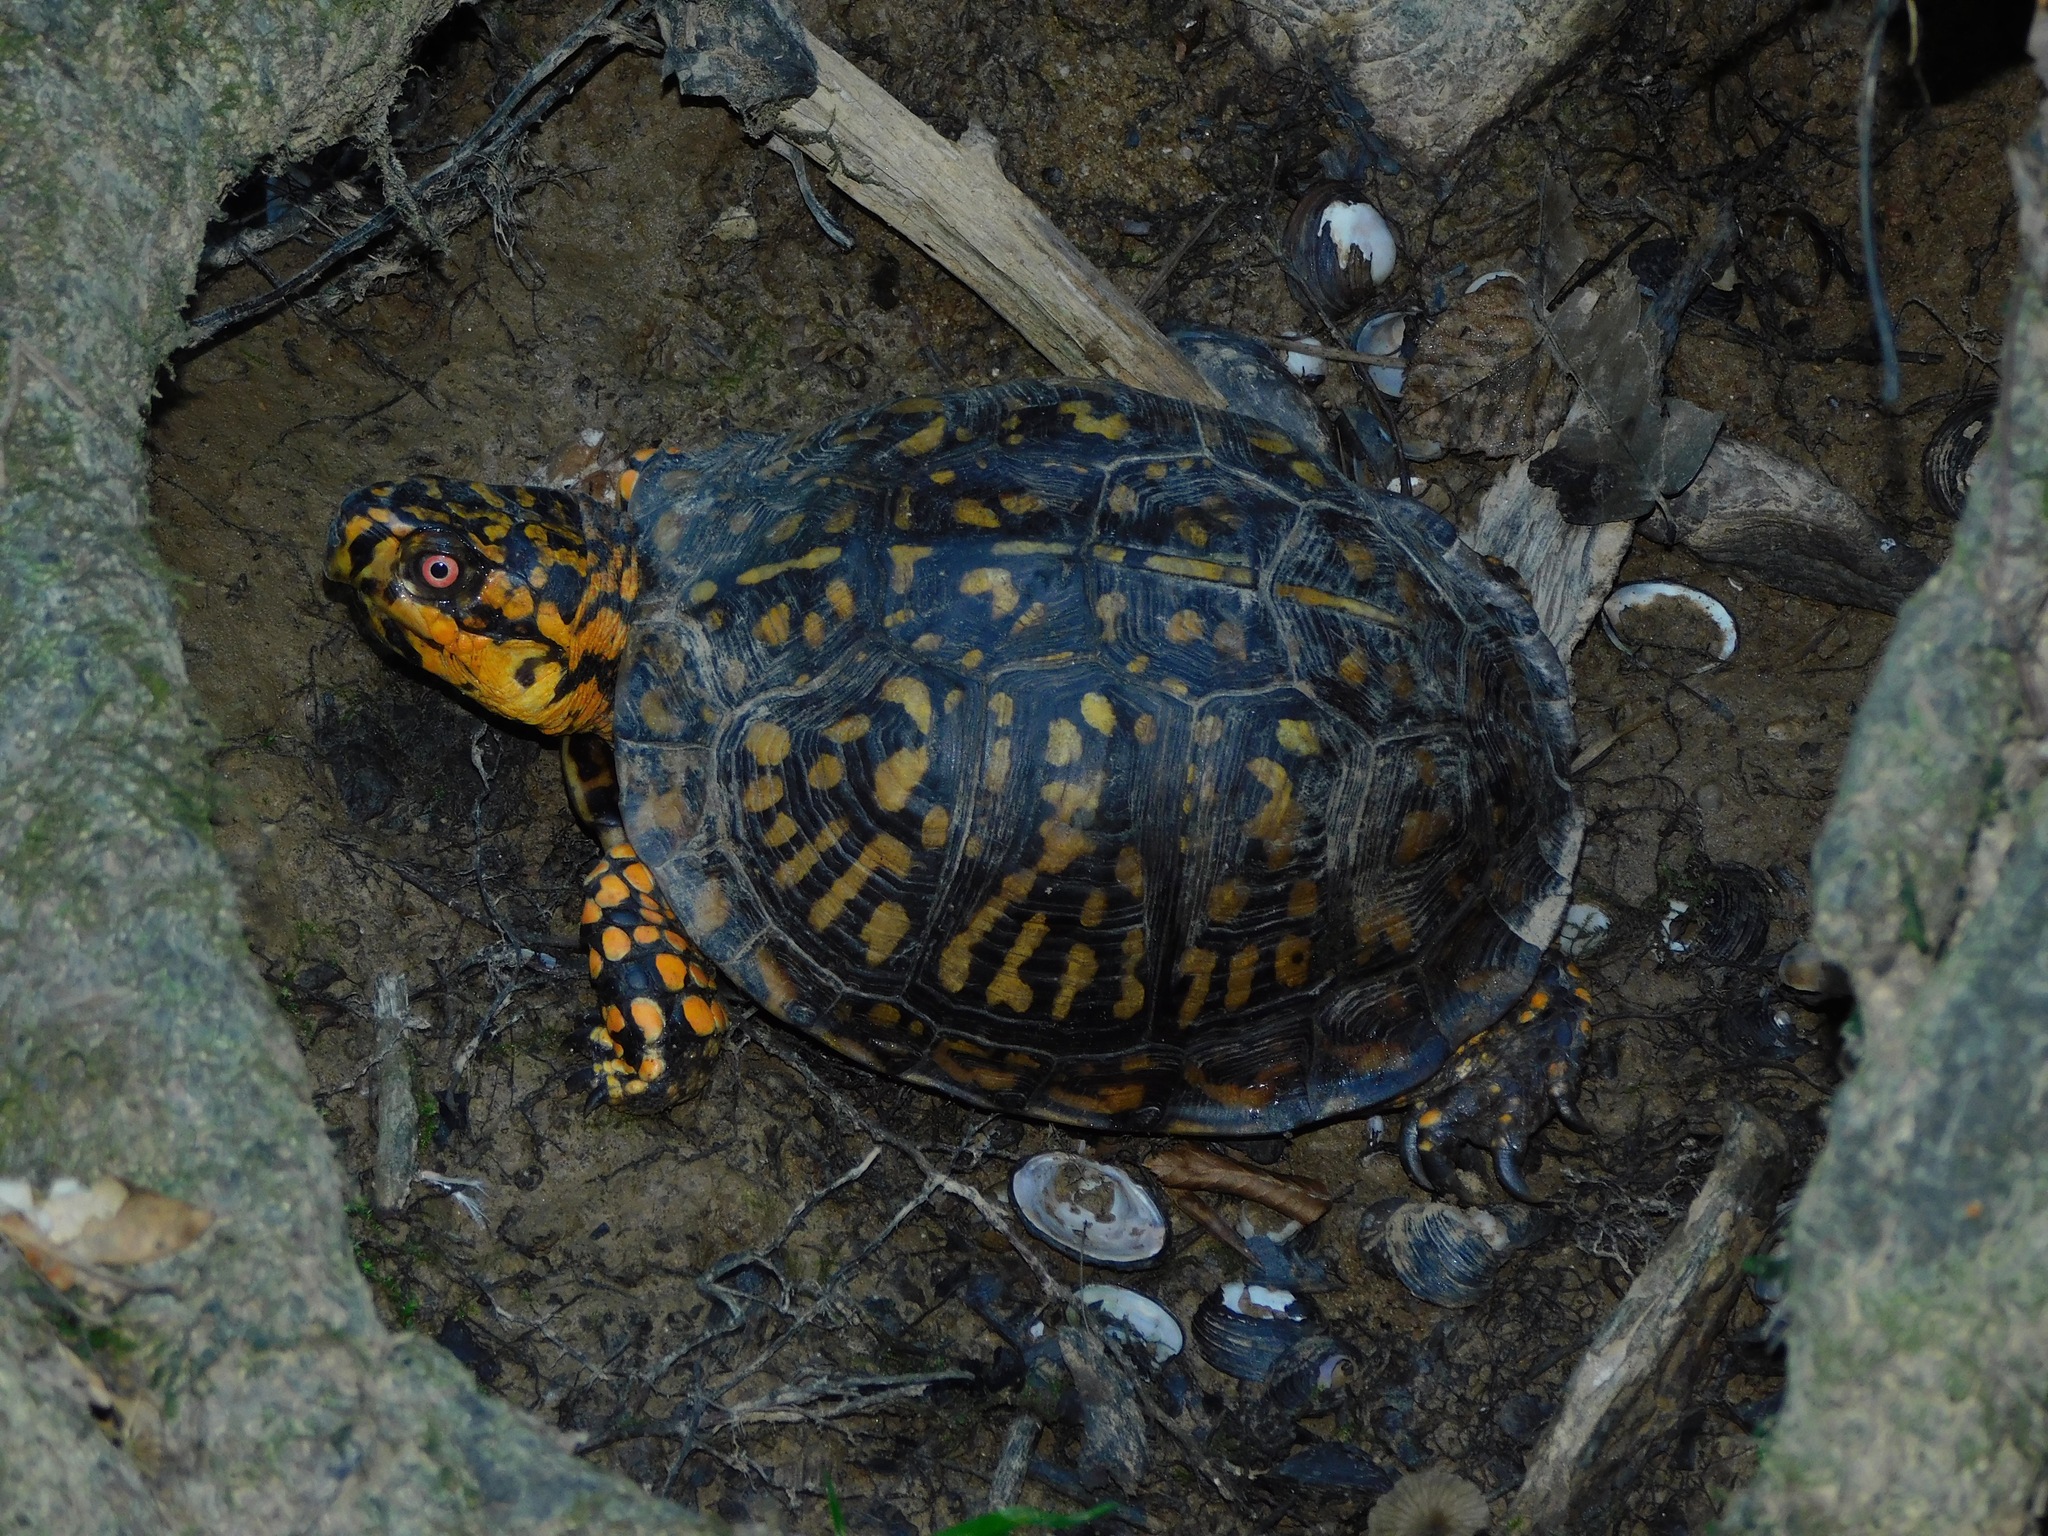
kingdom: Animalia
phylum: Chordata
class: Testudines
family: Emydidae
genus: Terrapene
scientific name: Terrapene carolina
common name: Common box turtle
